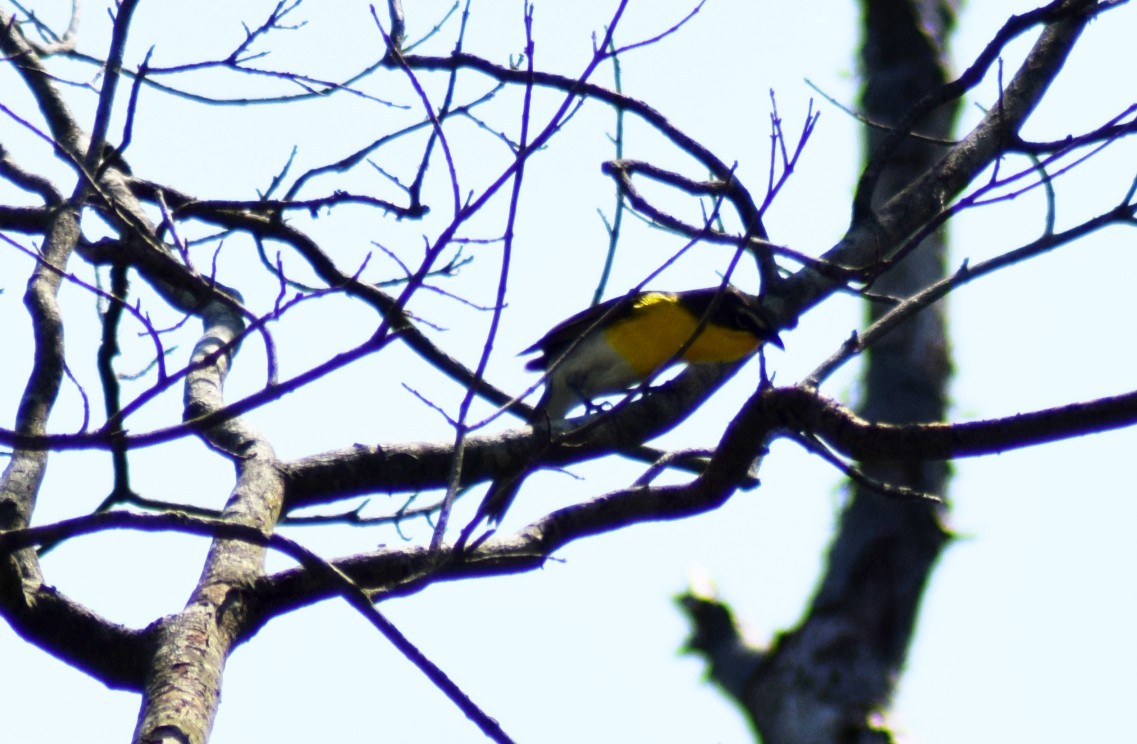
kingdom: Animalia
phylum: Chordata
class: Aves
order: Passeriformes
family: Parulidae
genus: Icteria
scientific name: Icteria virens
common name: Yellow-breasted chat
